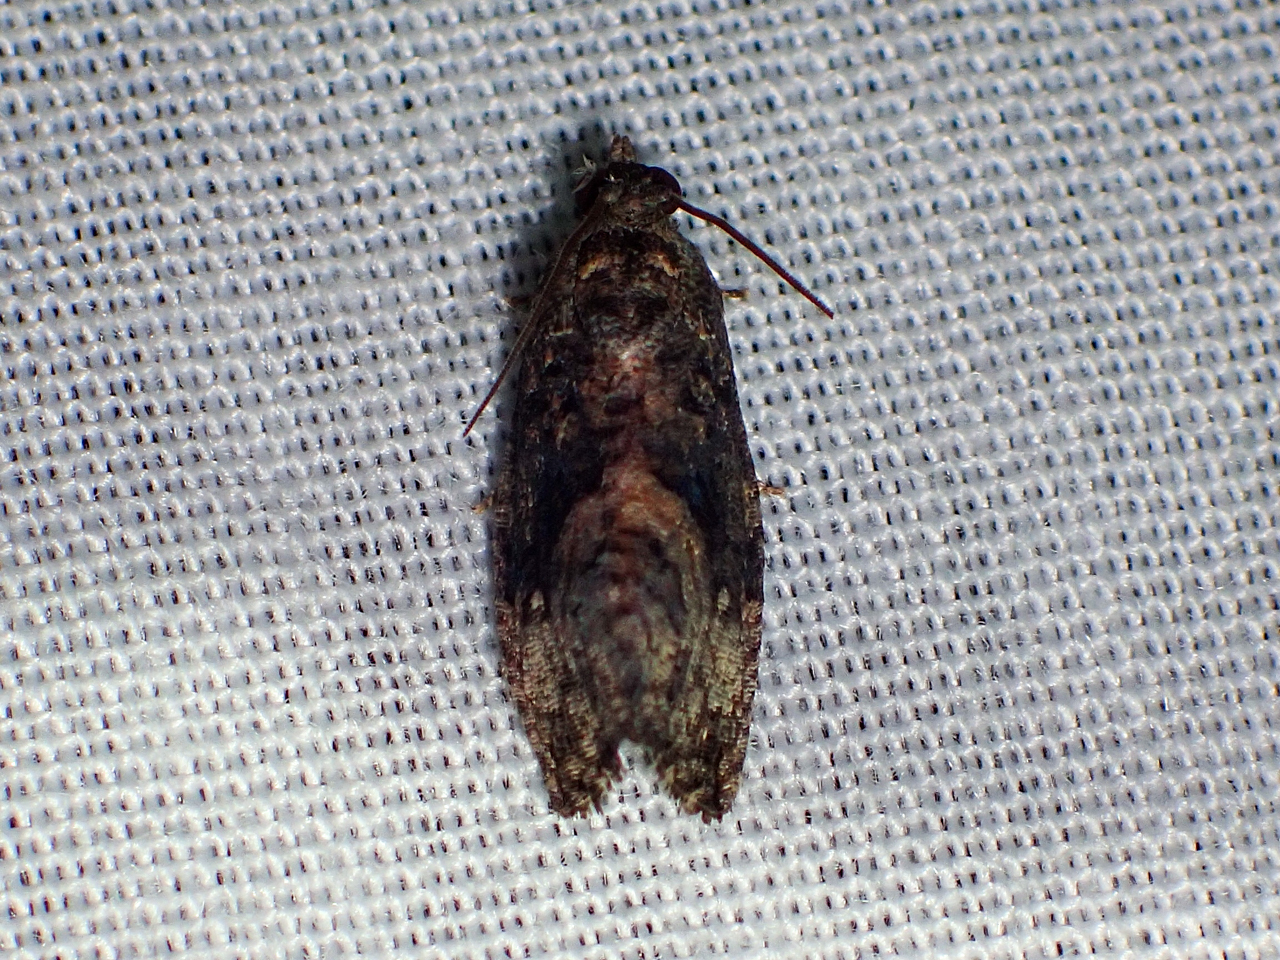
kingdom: Animalia
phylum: Arthropoda
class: Insecta
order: Lepidoptera
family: Tortricidae
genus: Gymnandrosoma
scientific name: Gymnandrosoma punctidiscanum
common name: Dotted ecdytolopha moth
